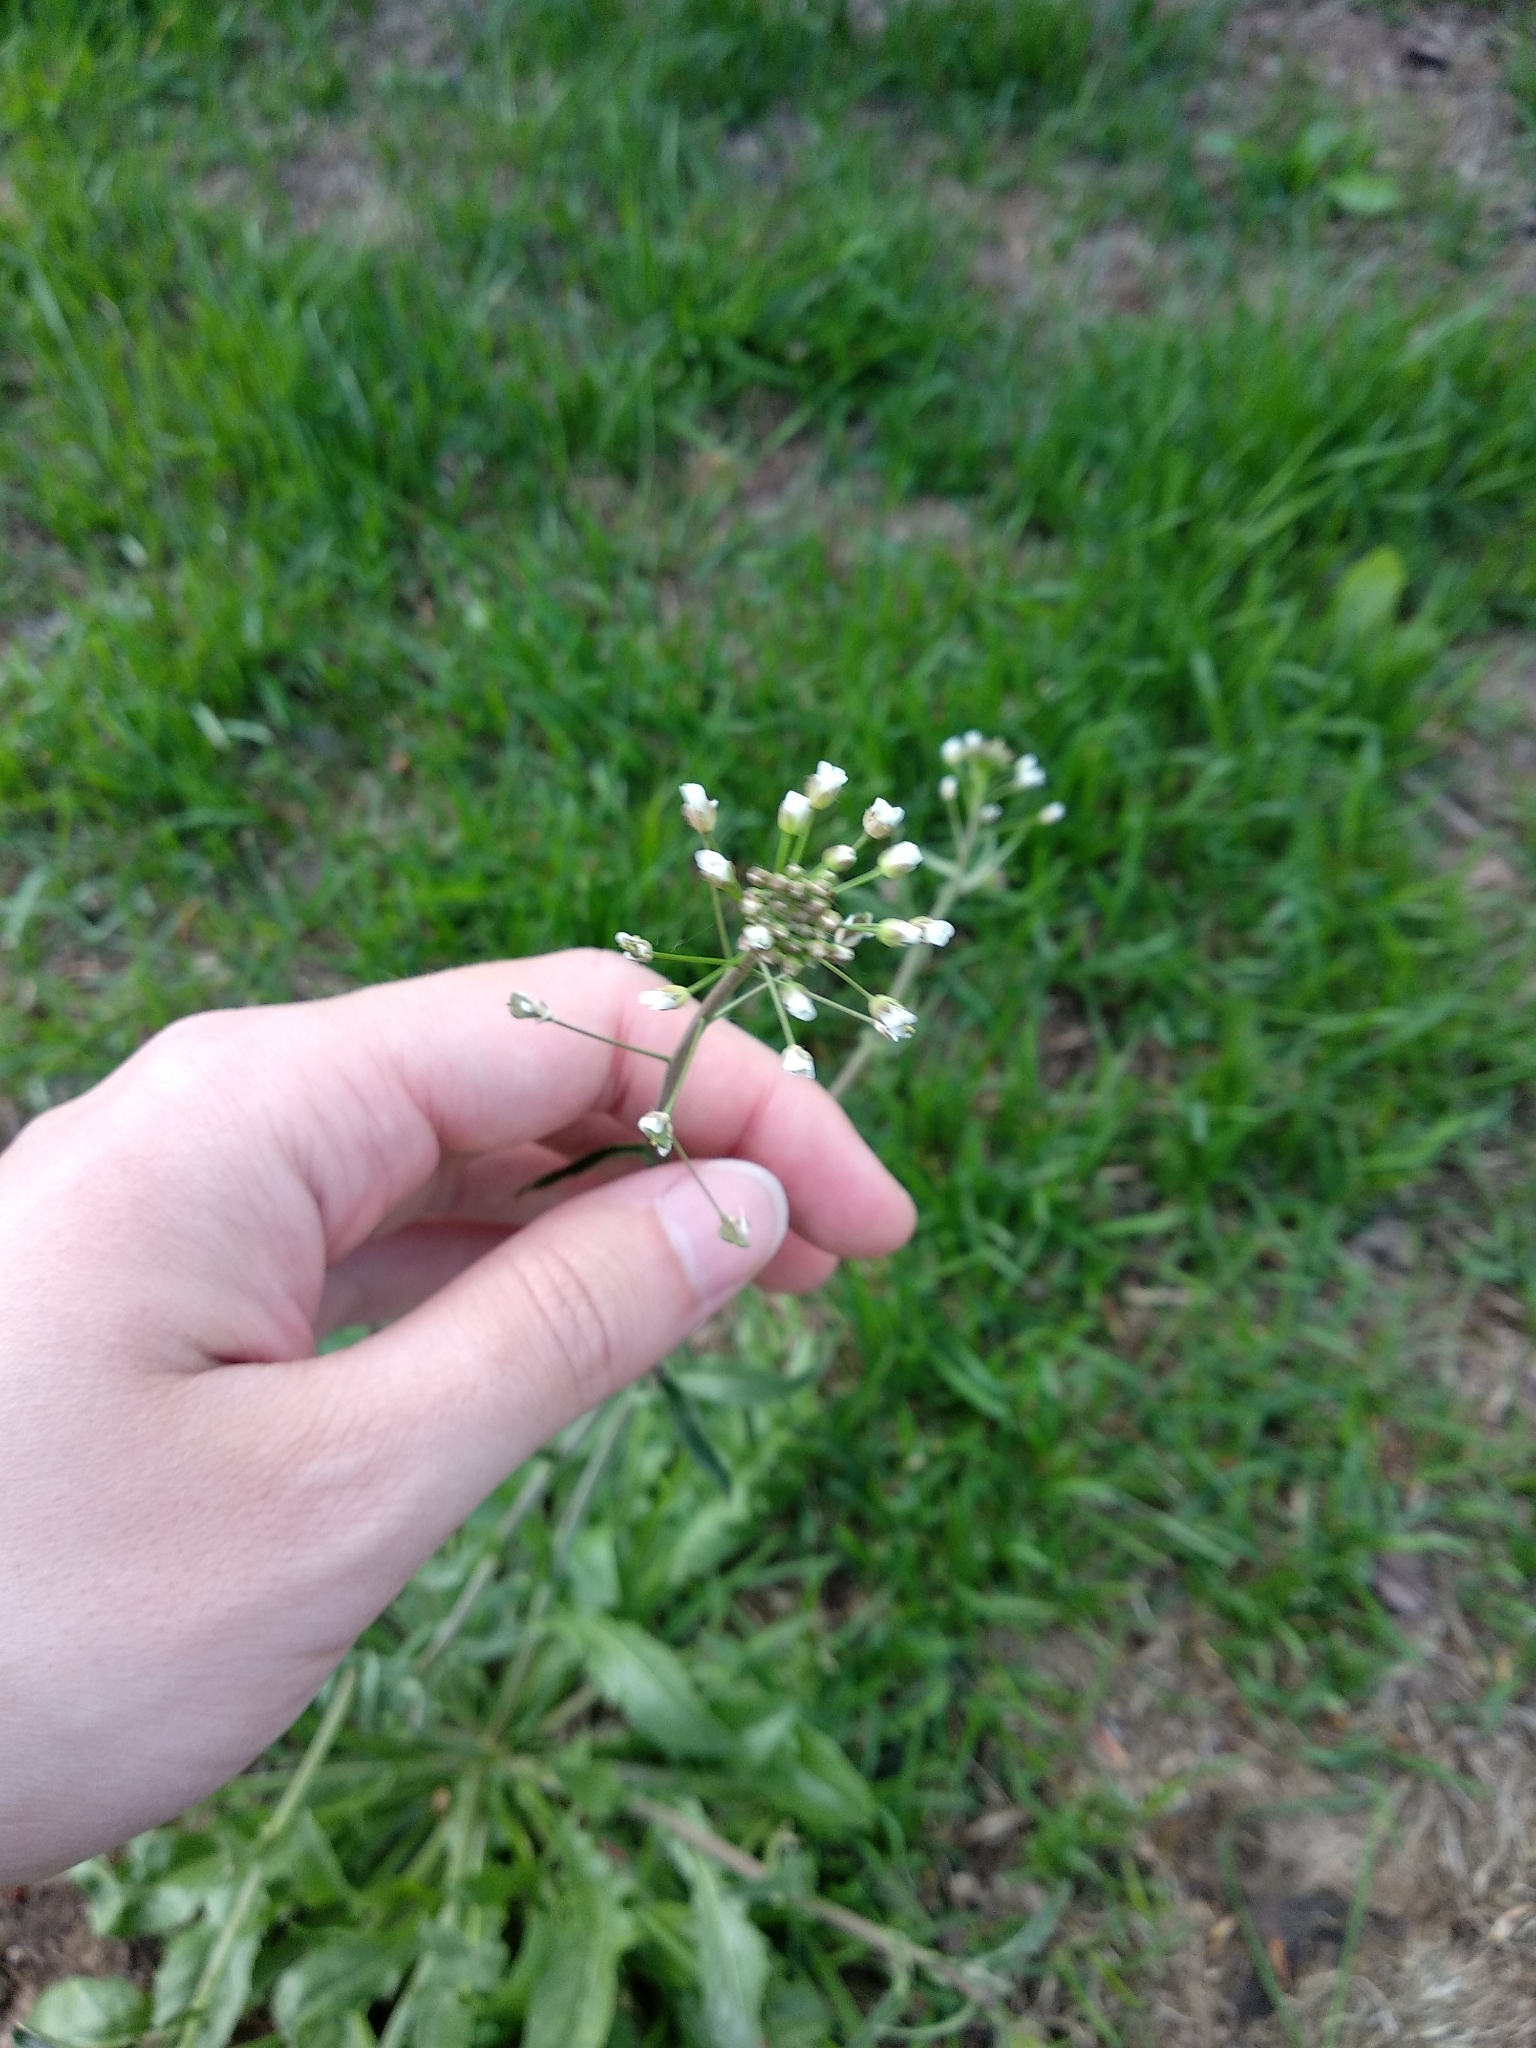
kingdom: Plantae
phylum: Tracheophyta
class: Magnoliopsida
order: Brassicales
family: Brassicaceae
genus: Capsella
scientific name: Capsella bursa-pastoris
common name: Shepherd's purse
